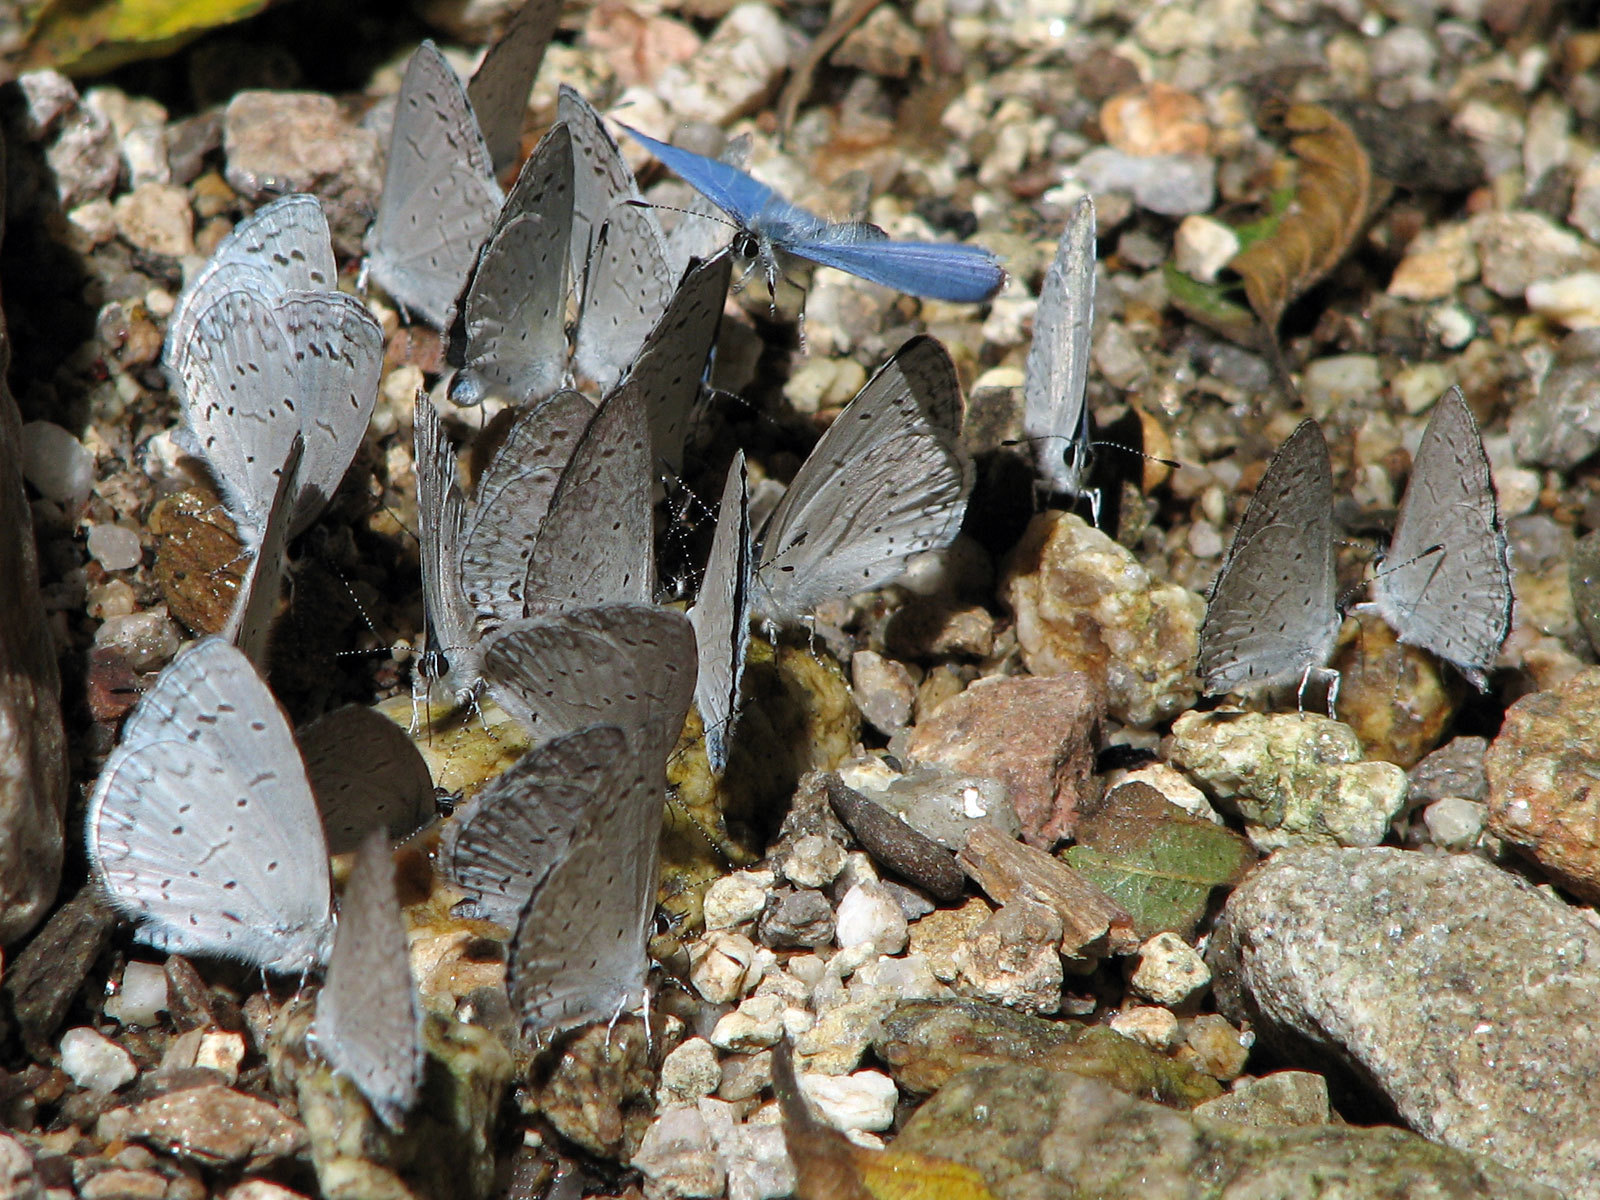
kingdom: Animalia
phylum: Arthropoda
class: Insecta
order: Lepidoptera
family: Lycaenidae
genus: Celastrina
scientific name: Celastrina ladon
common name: Spring azure
